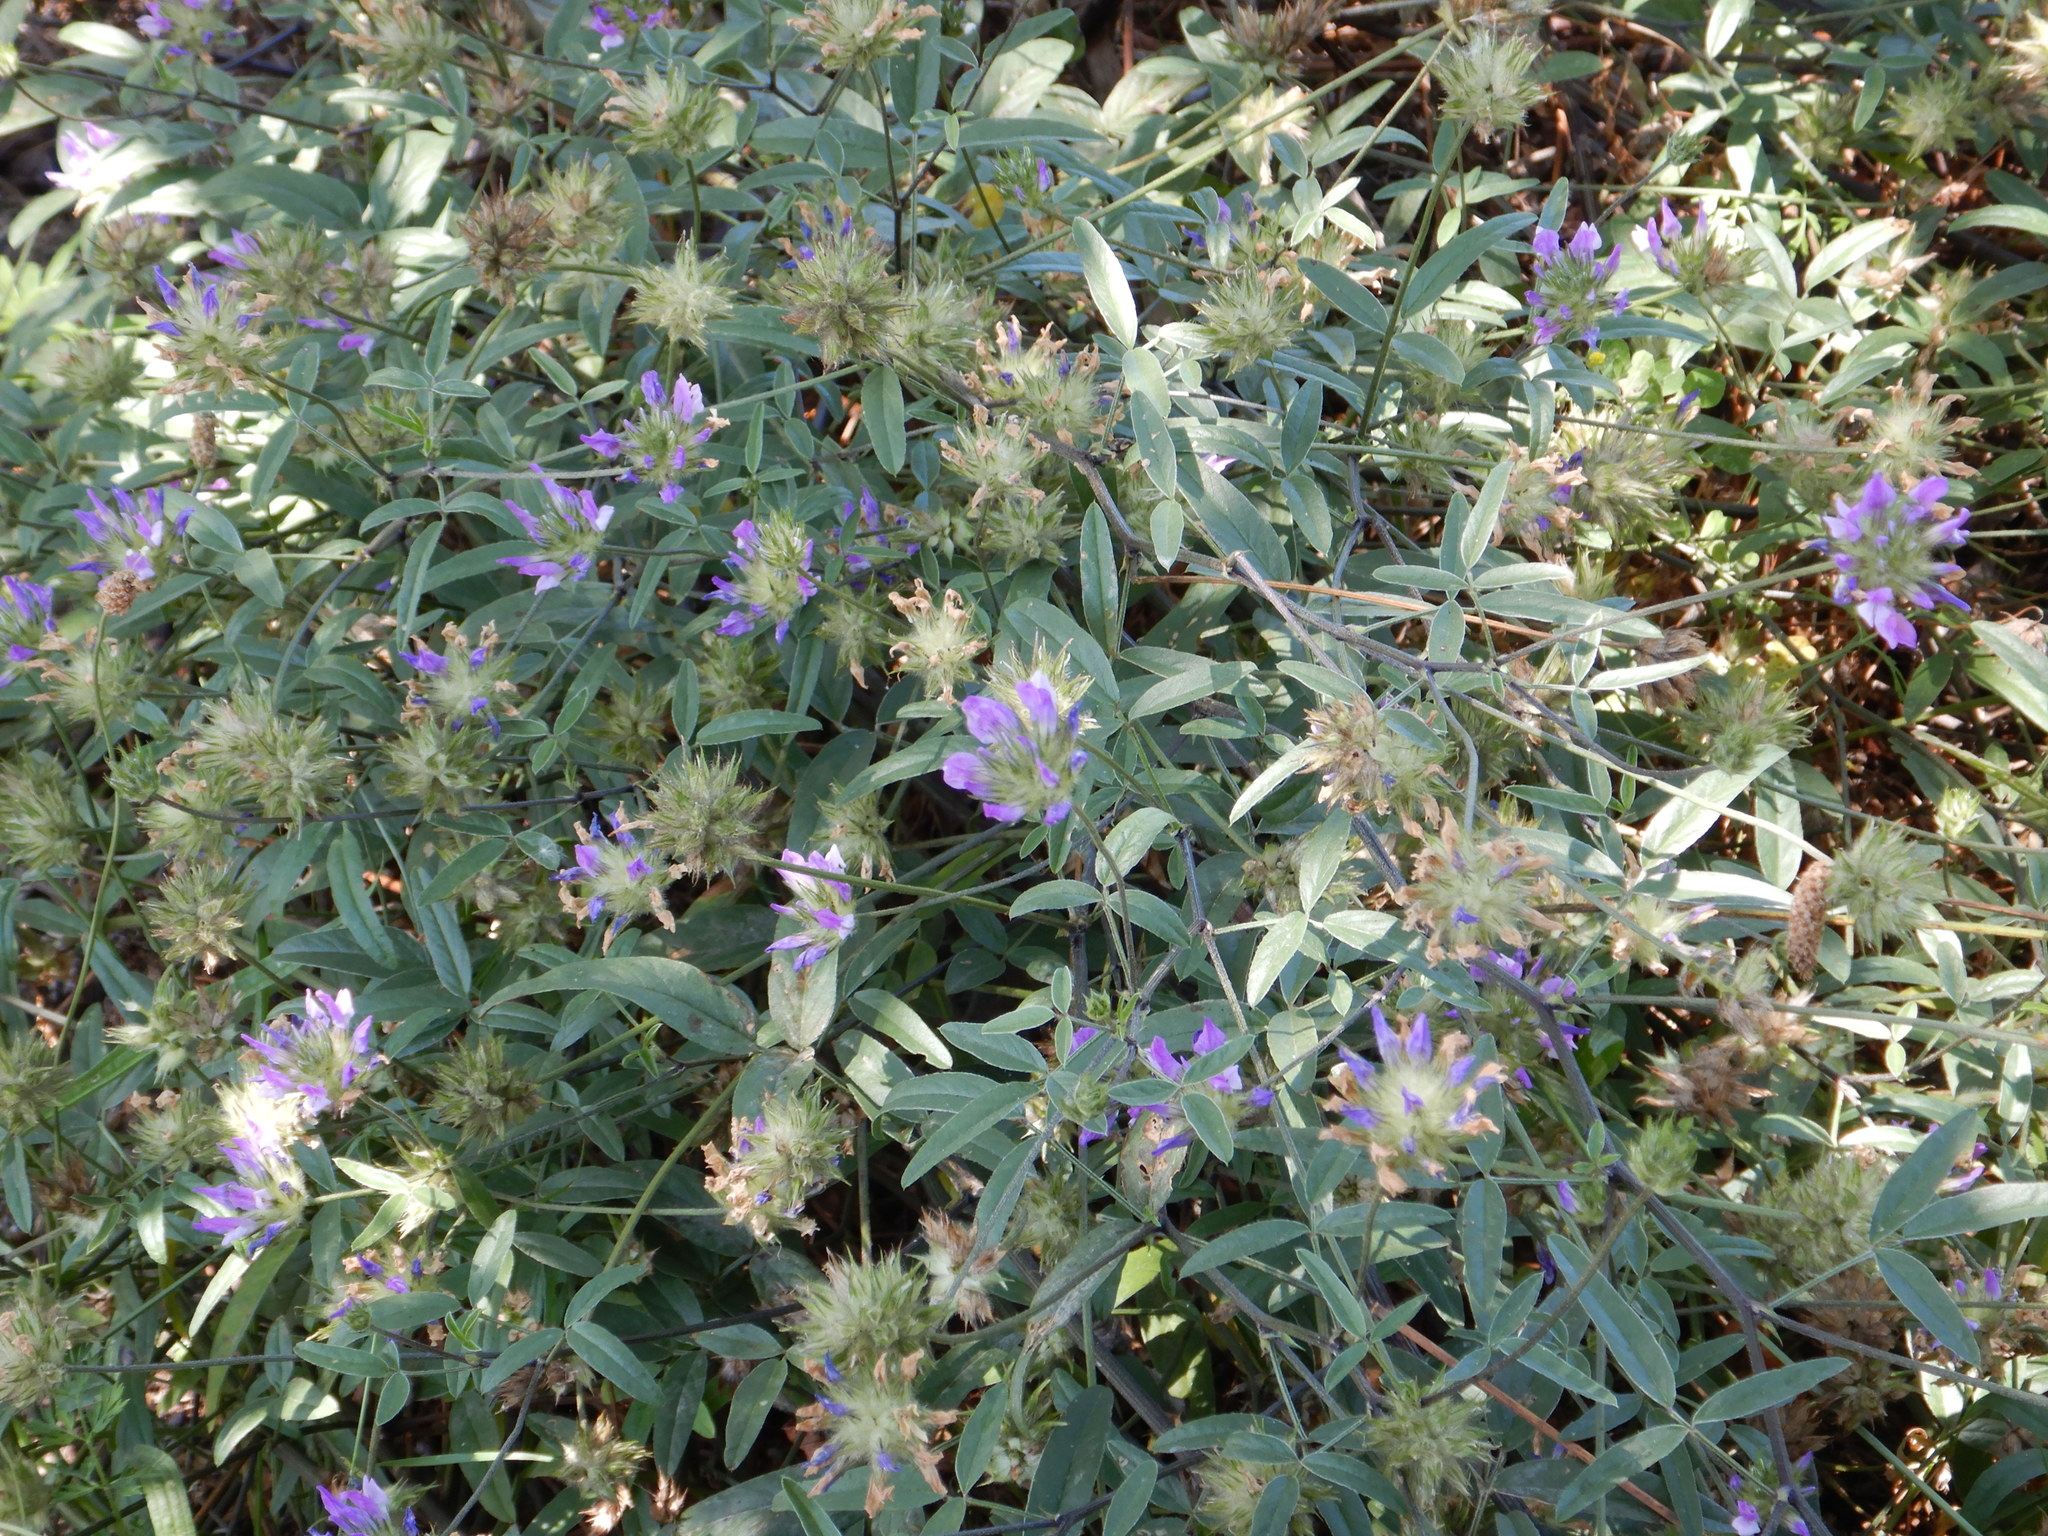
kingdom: Plantae
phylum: Tracheophyta
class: Magnoliopsida
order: Fabales
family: Fabaceae
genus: Bituminaria
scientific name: Bituminaria bituminosa
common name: Arabian pea
